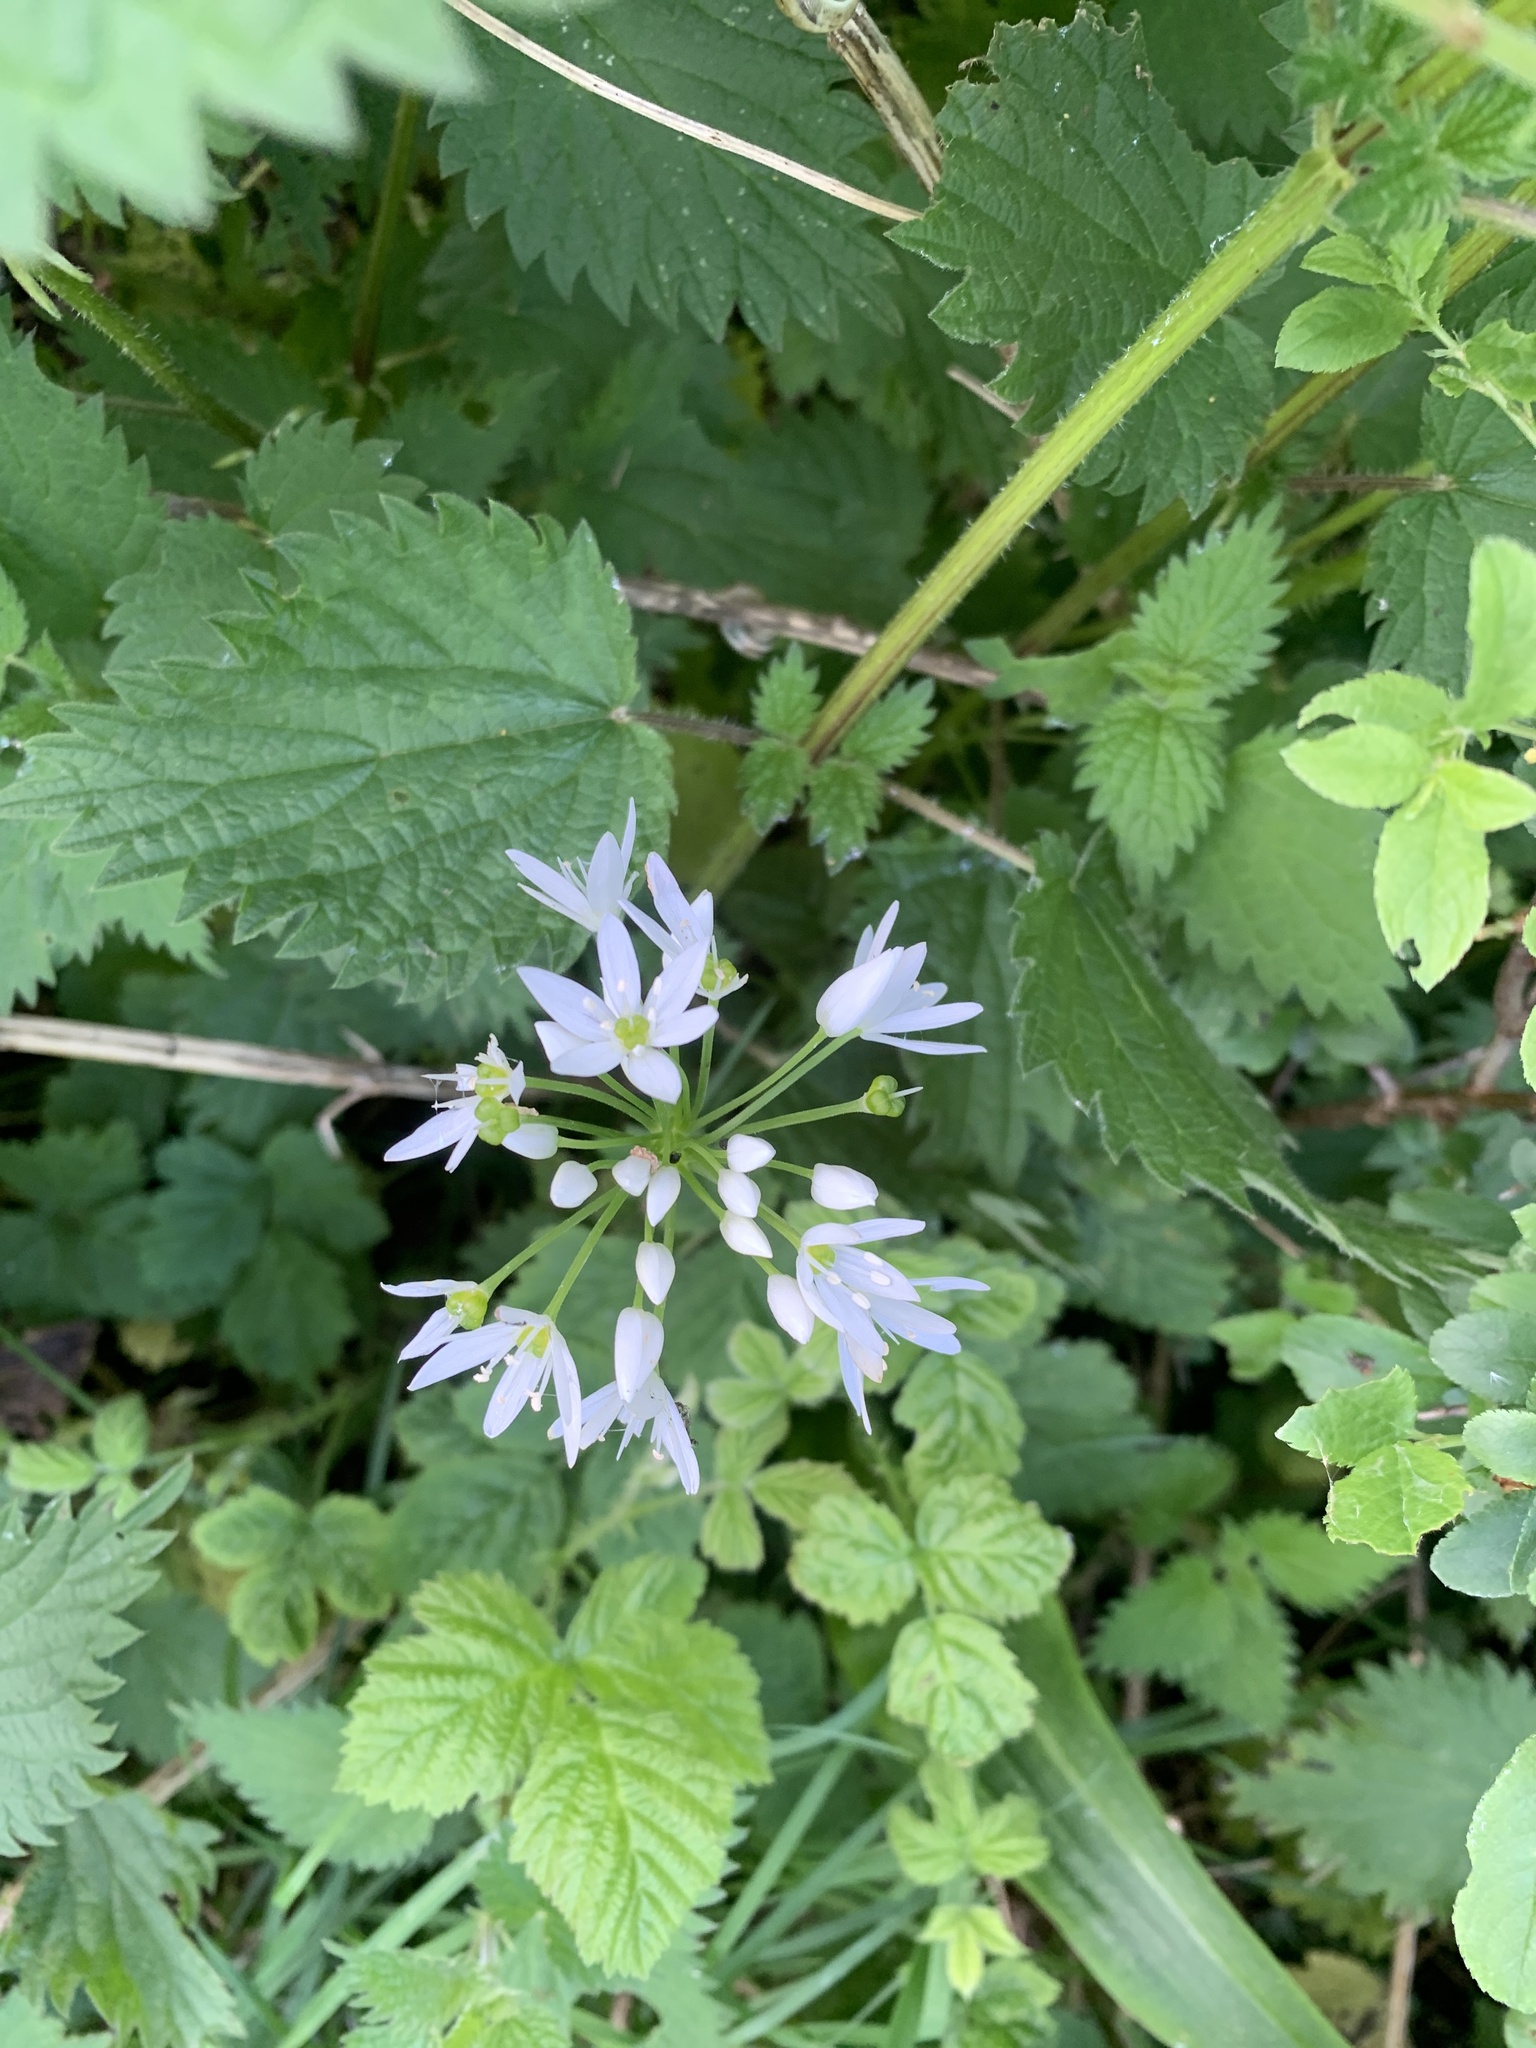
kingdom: Plantae
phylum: Tracheophyta
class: Liliopsida
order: Asparagales
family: Amaryllidaceae
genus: Allium
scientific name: Allium ursinum
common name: Ramsons
